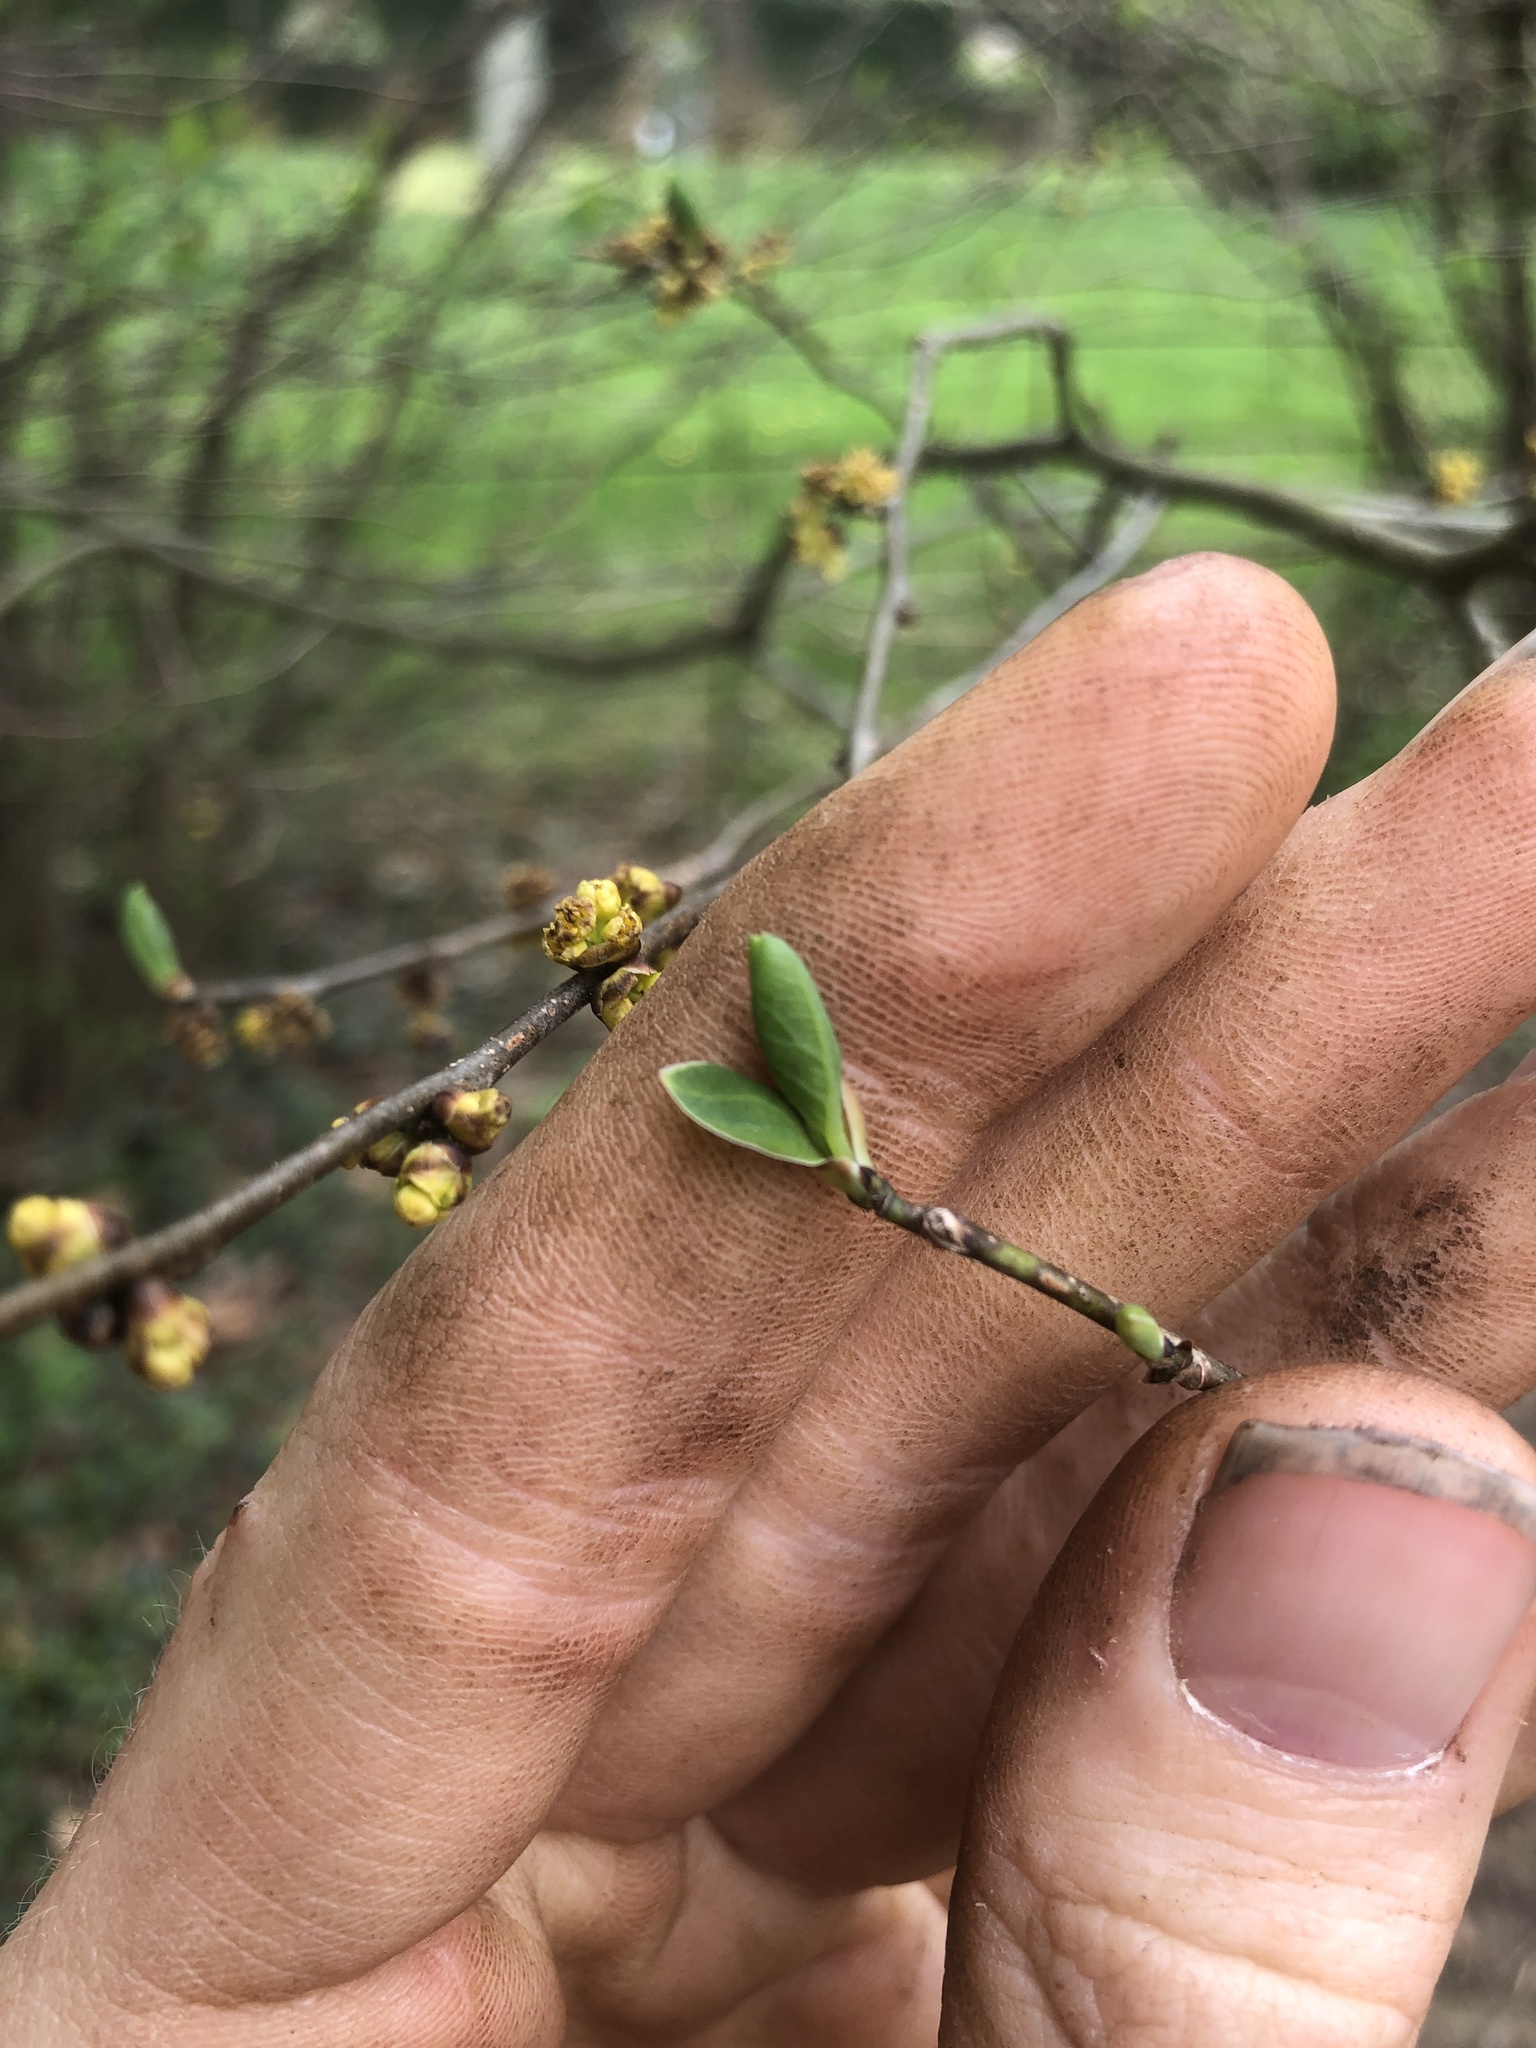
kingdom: Plantae
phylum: Tracheophyta
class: Magnoliopsida
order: Laurales
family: Lauraceae
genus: Lindera
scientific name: Lindera benzoin
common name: Spicebush
